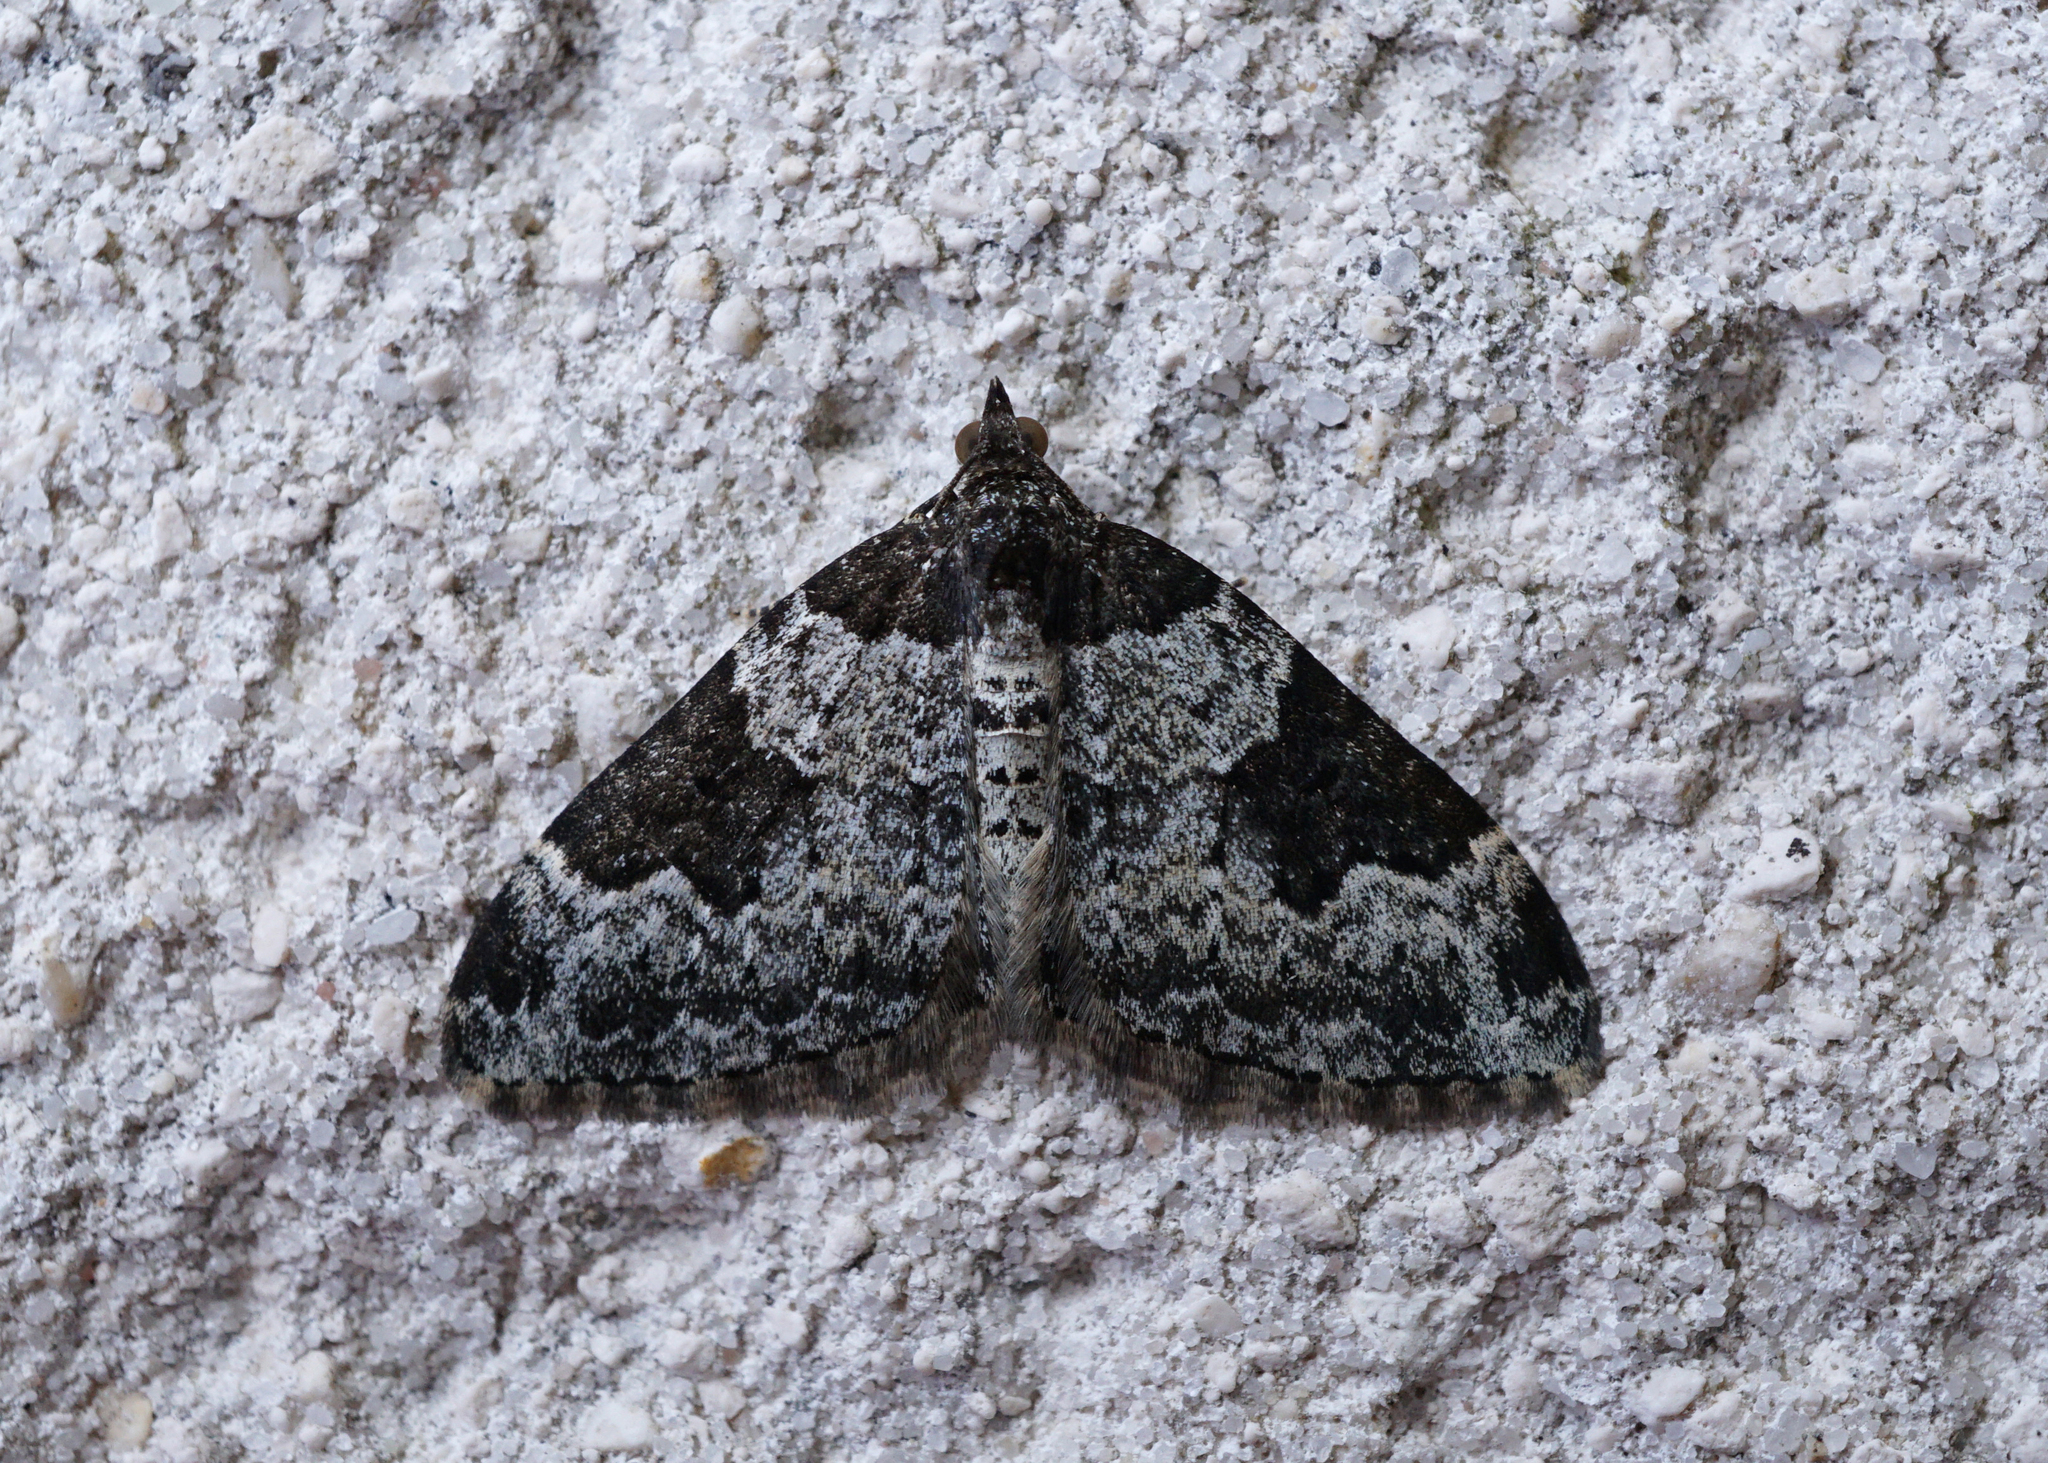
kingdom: Animalia
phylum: Arthropoda
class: Insecta
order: Lepidoptera
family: Geometridae
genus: Xanthorhoe
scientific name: Xanthorhoe fluctuata
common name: Garden carpet
